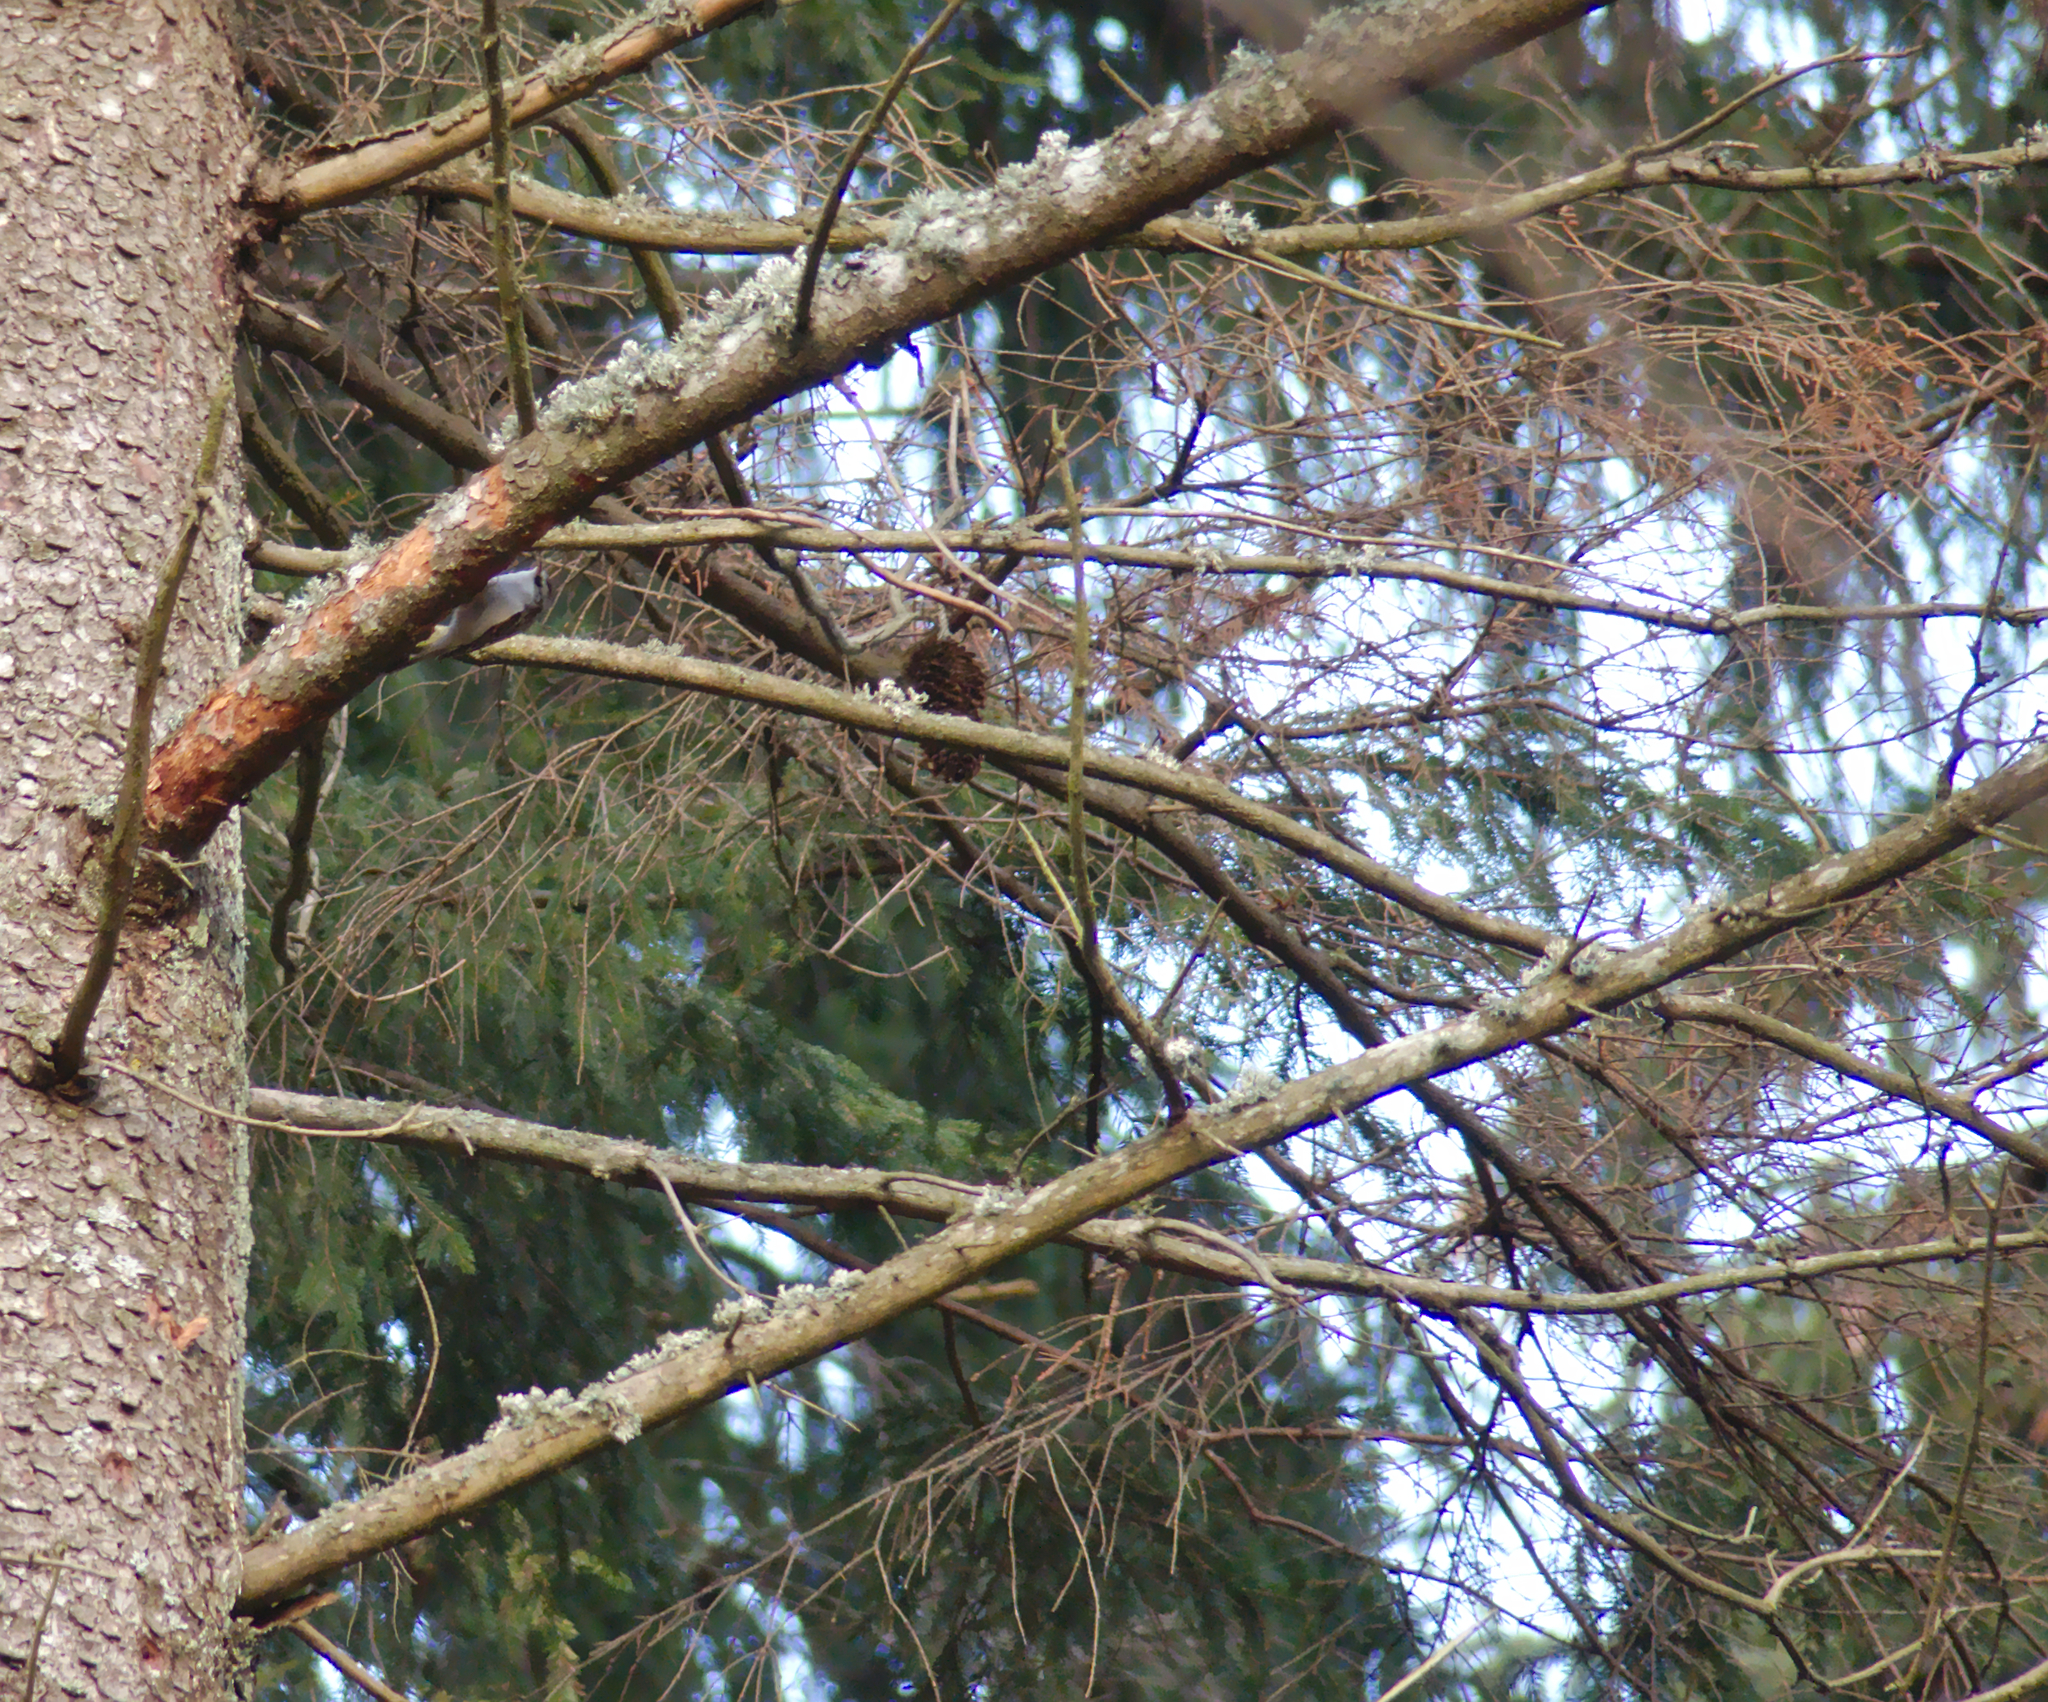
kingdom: Animalia
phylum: Chordata
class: Aves
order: Passeriformes
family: Certhiidae
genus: Certhia
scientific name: Certhia familiaris
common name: Eurasian treecreeper
